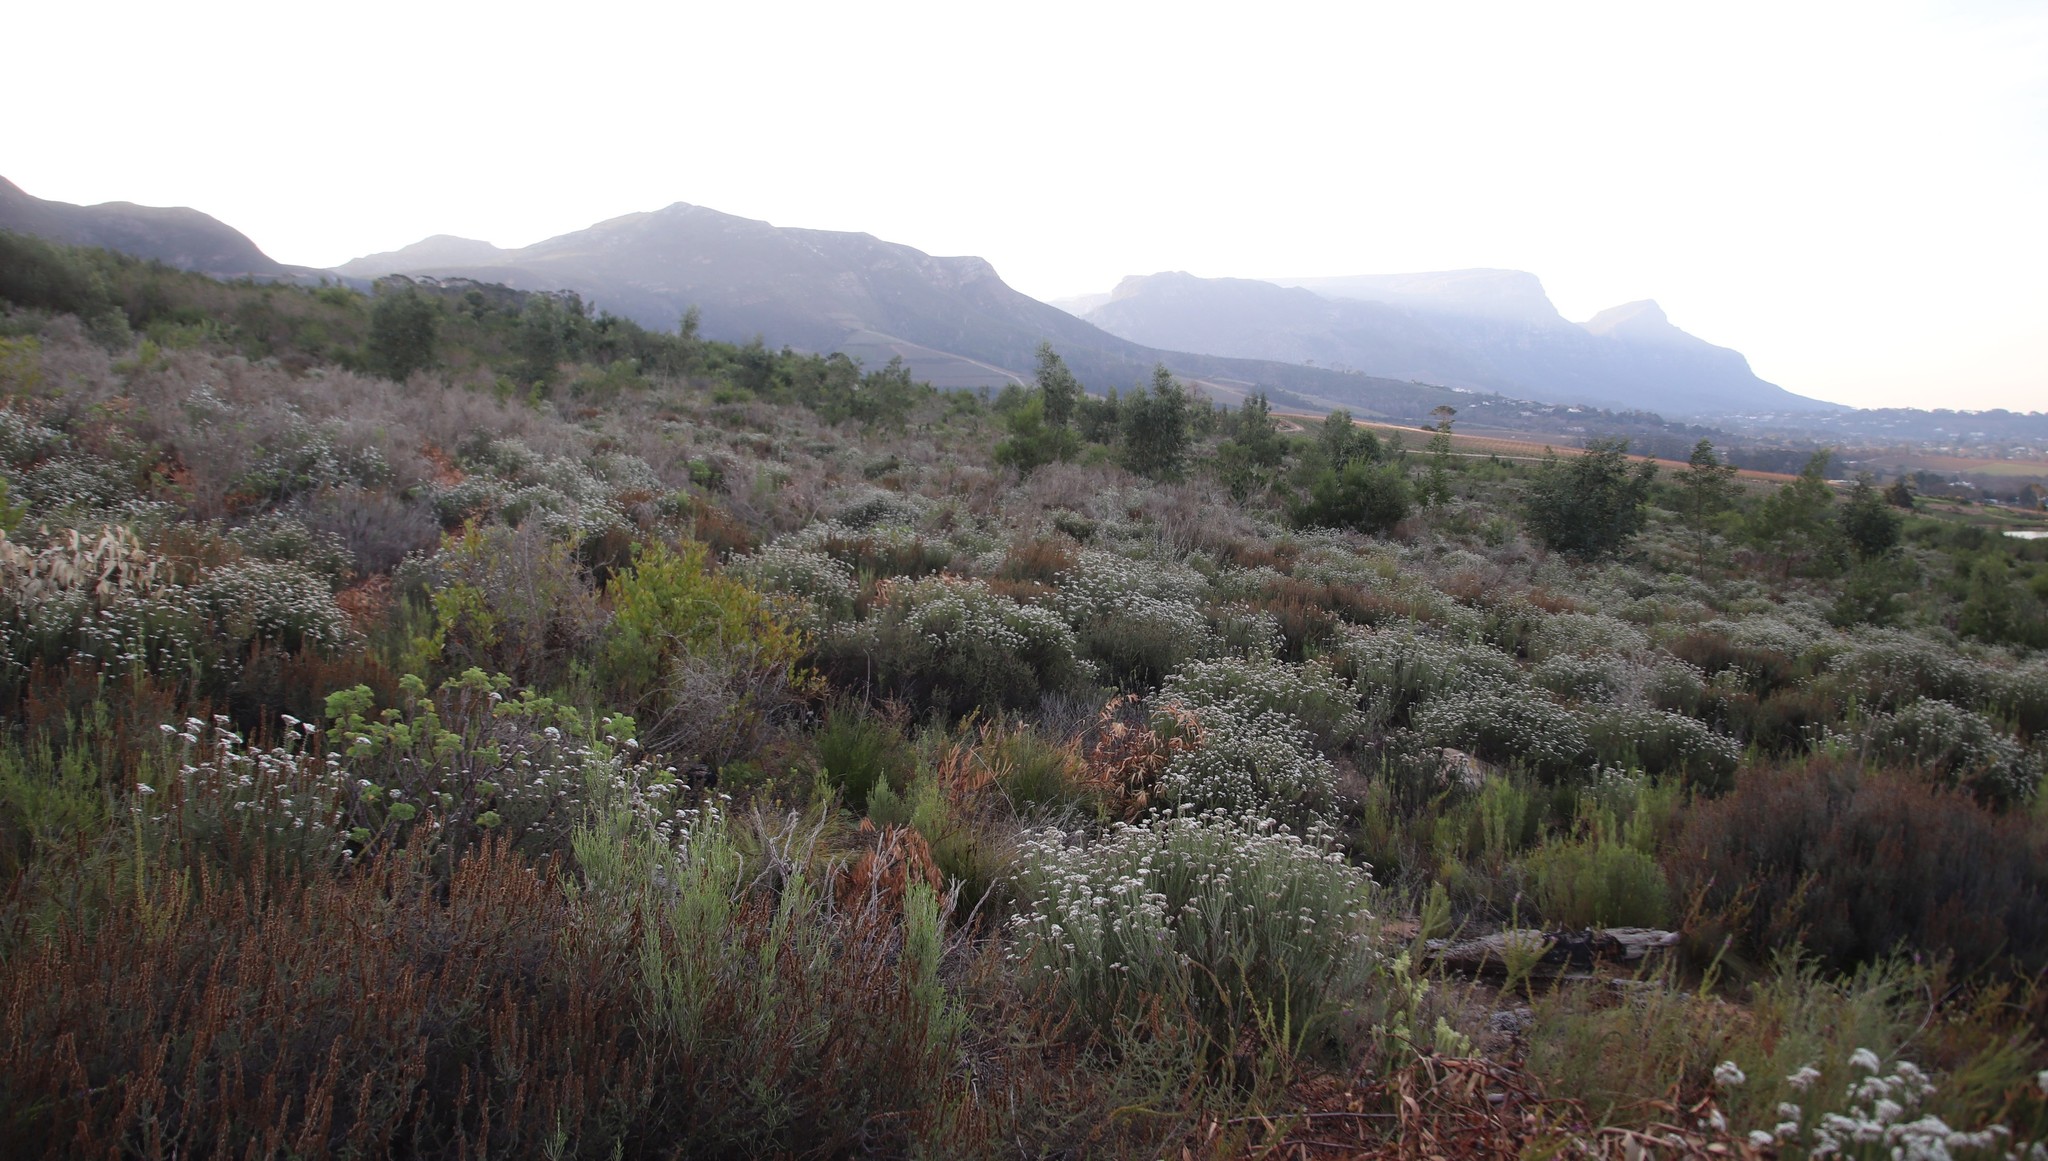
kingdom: Plantae
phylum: Tracheophyta
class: Magnoliopsida
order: Asterales
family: Asteraceae
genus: Metalasia
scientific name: Metalasia densa
